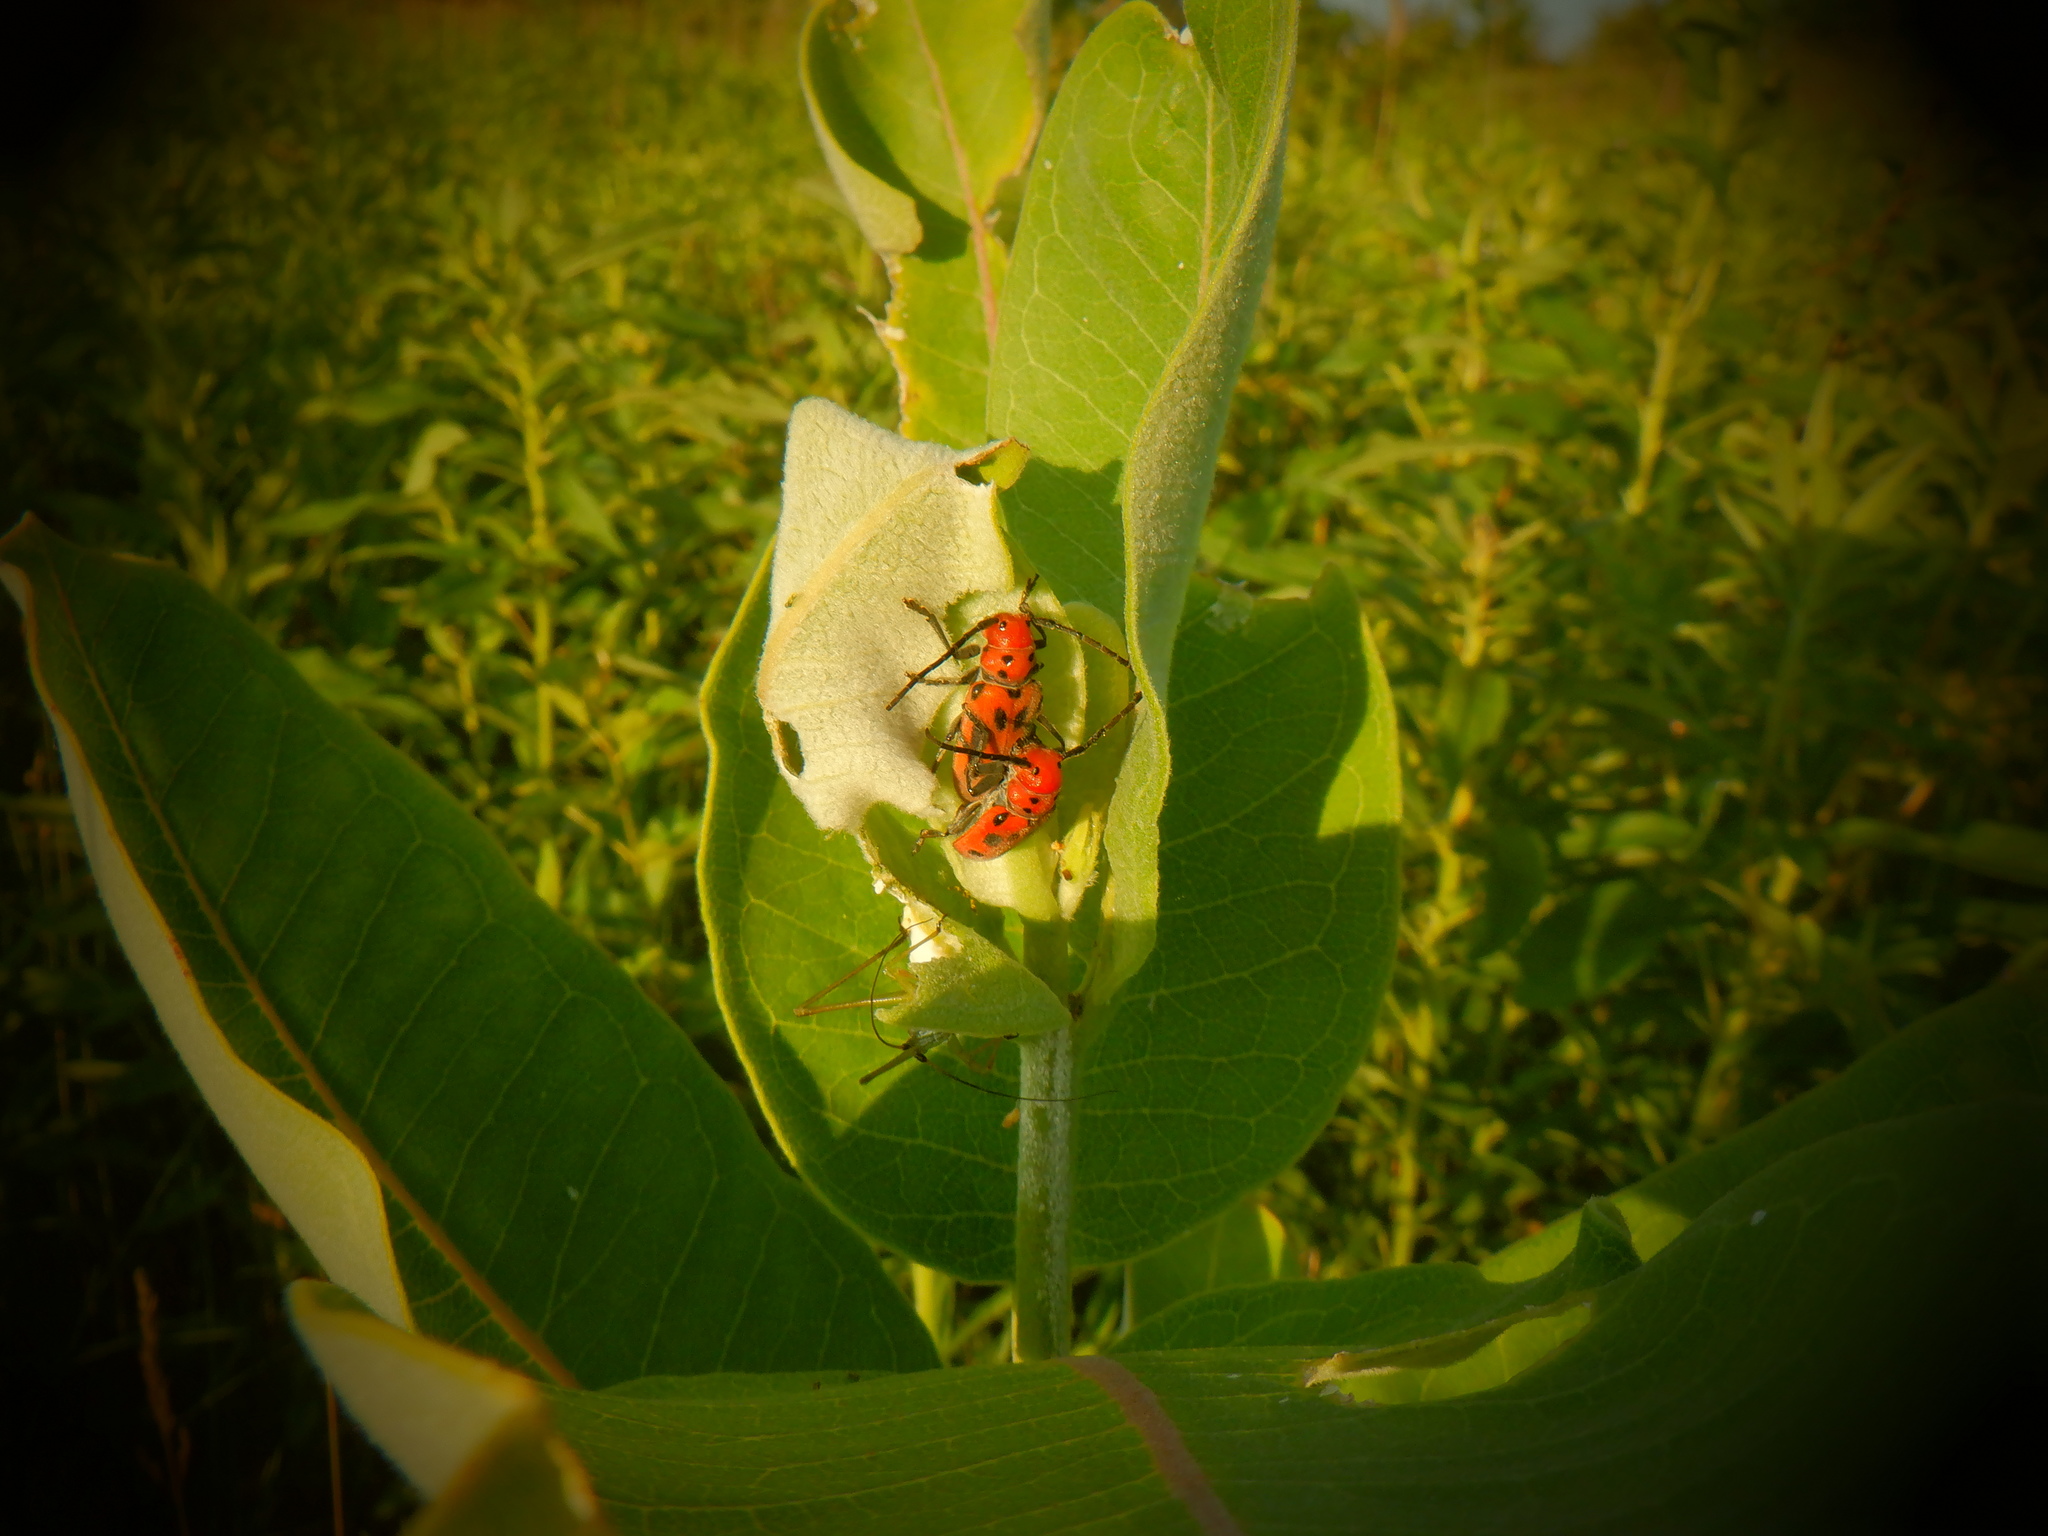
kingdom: Animalia
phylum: Arthropoda
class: Insecta
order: Coleoptera
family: Cerambycidae
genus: Tetraopes
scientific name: Tetraopes tetrophthalmus
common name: Red milkweed beetle
